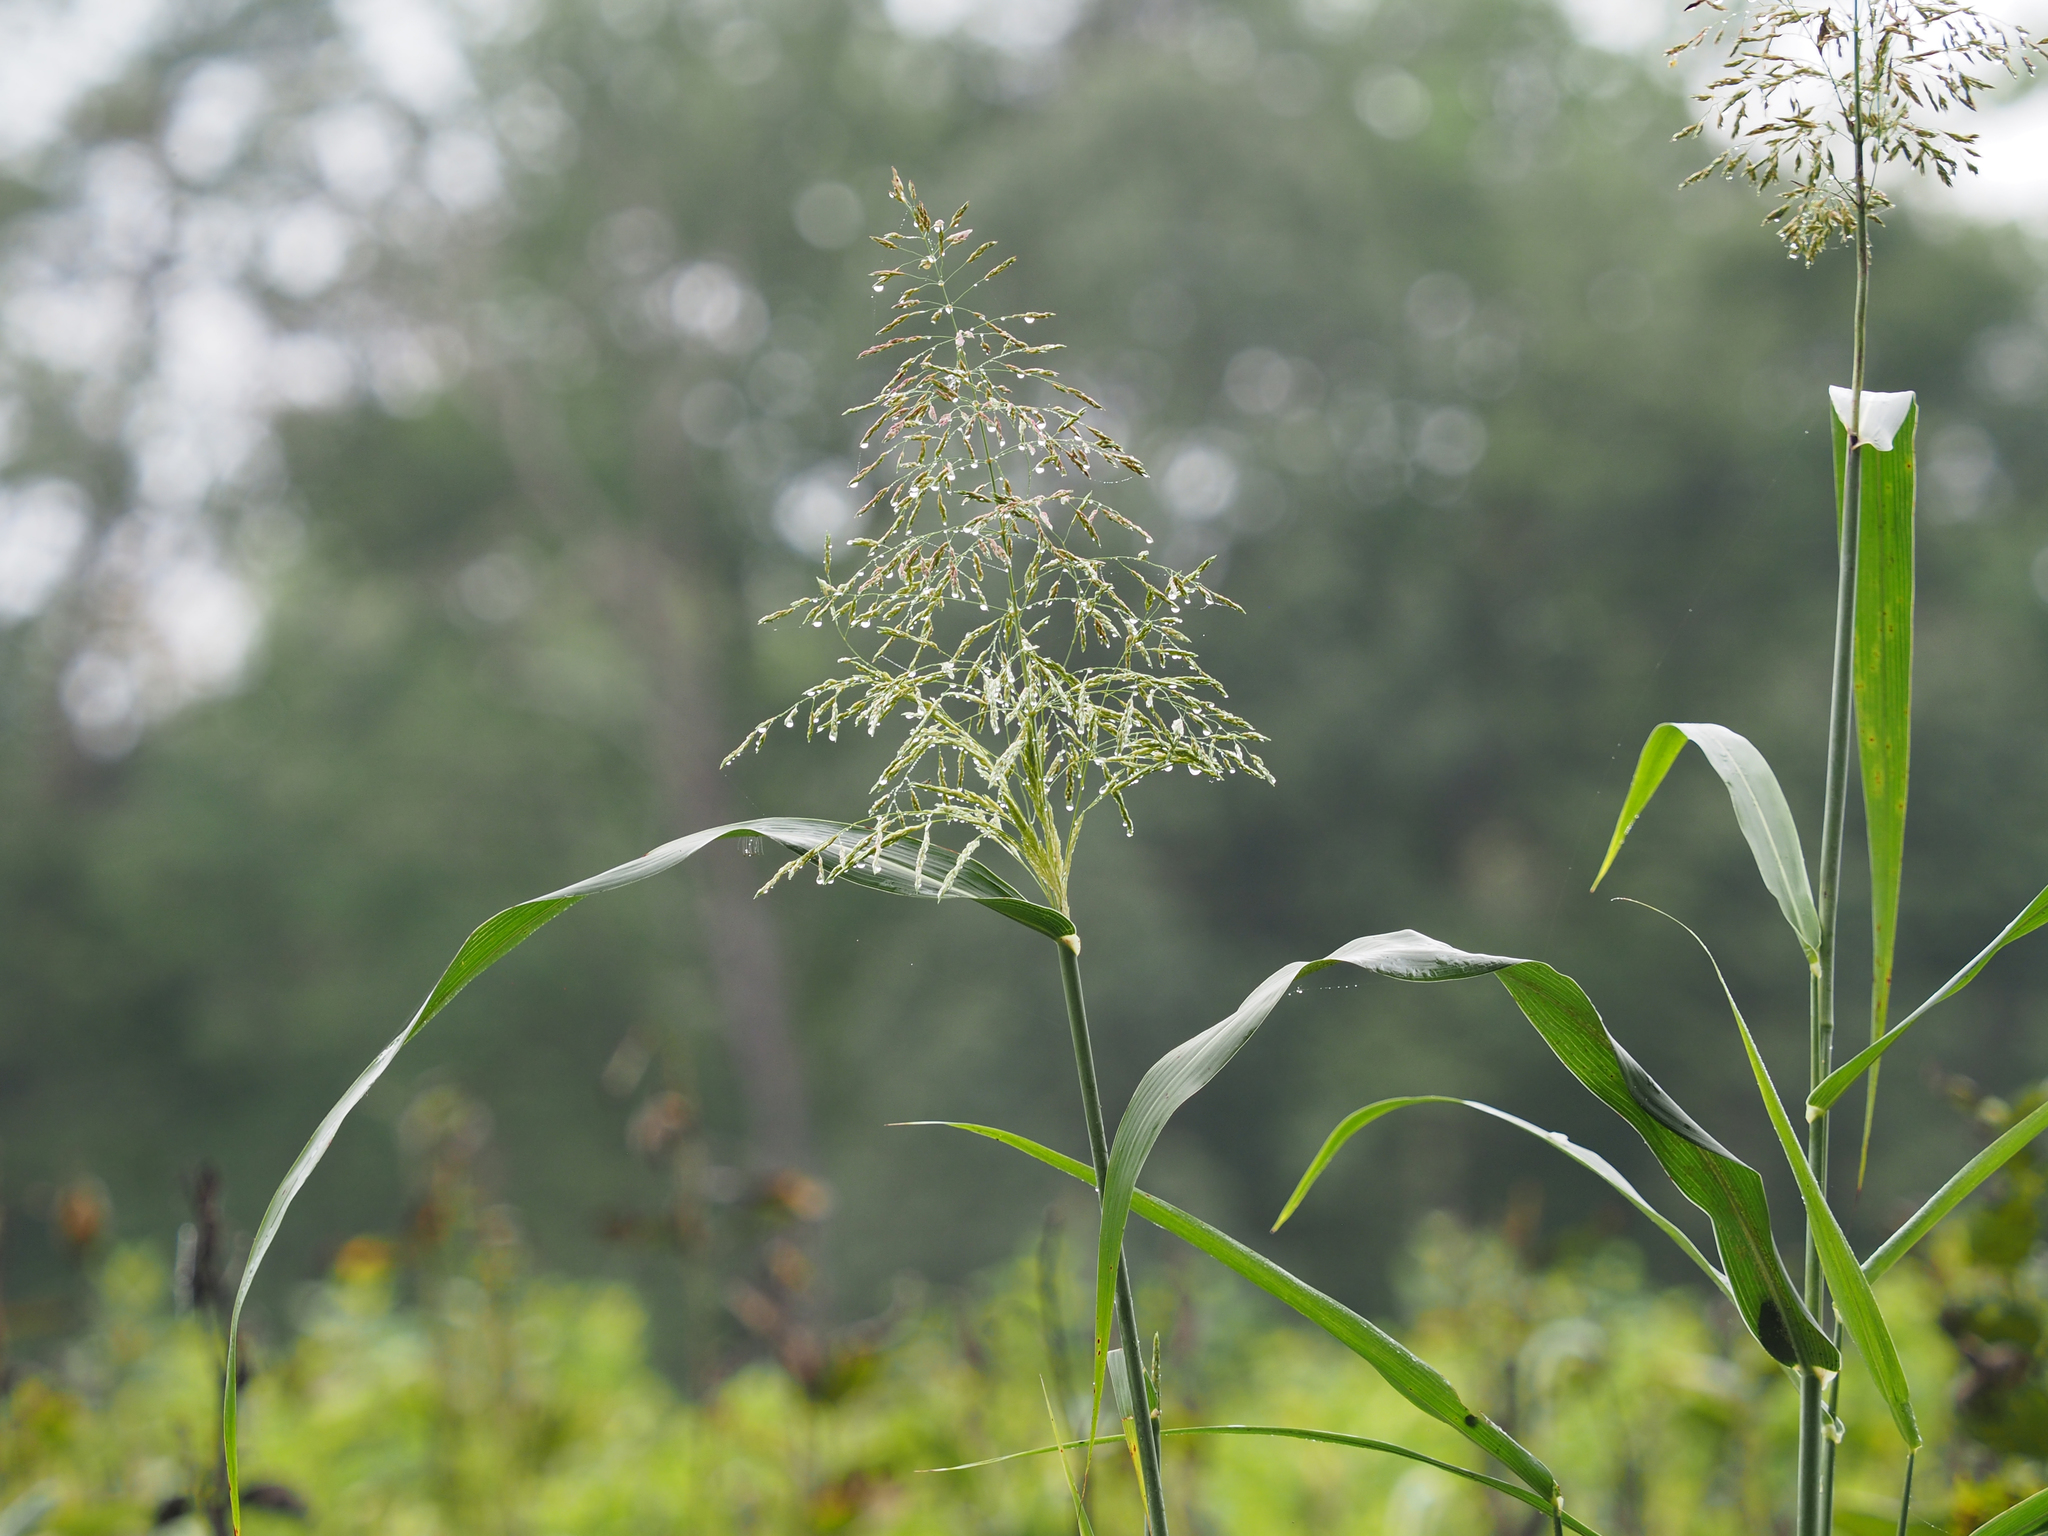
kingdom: Plantae
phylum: Tracheophyta
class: Liliopsida
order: Poales
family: Poaceae
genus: Zizania
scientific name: Zizania aquatica
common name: Annual wildrice
